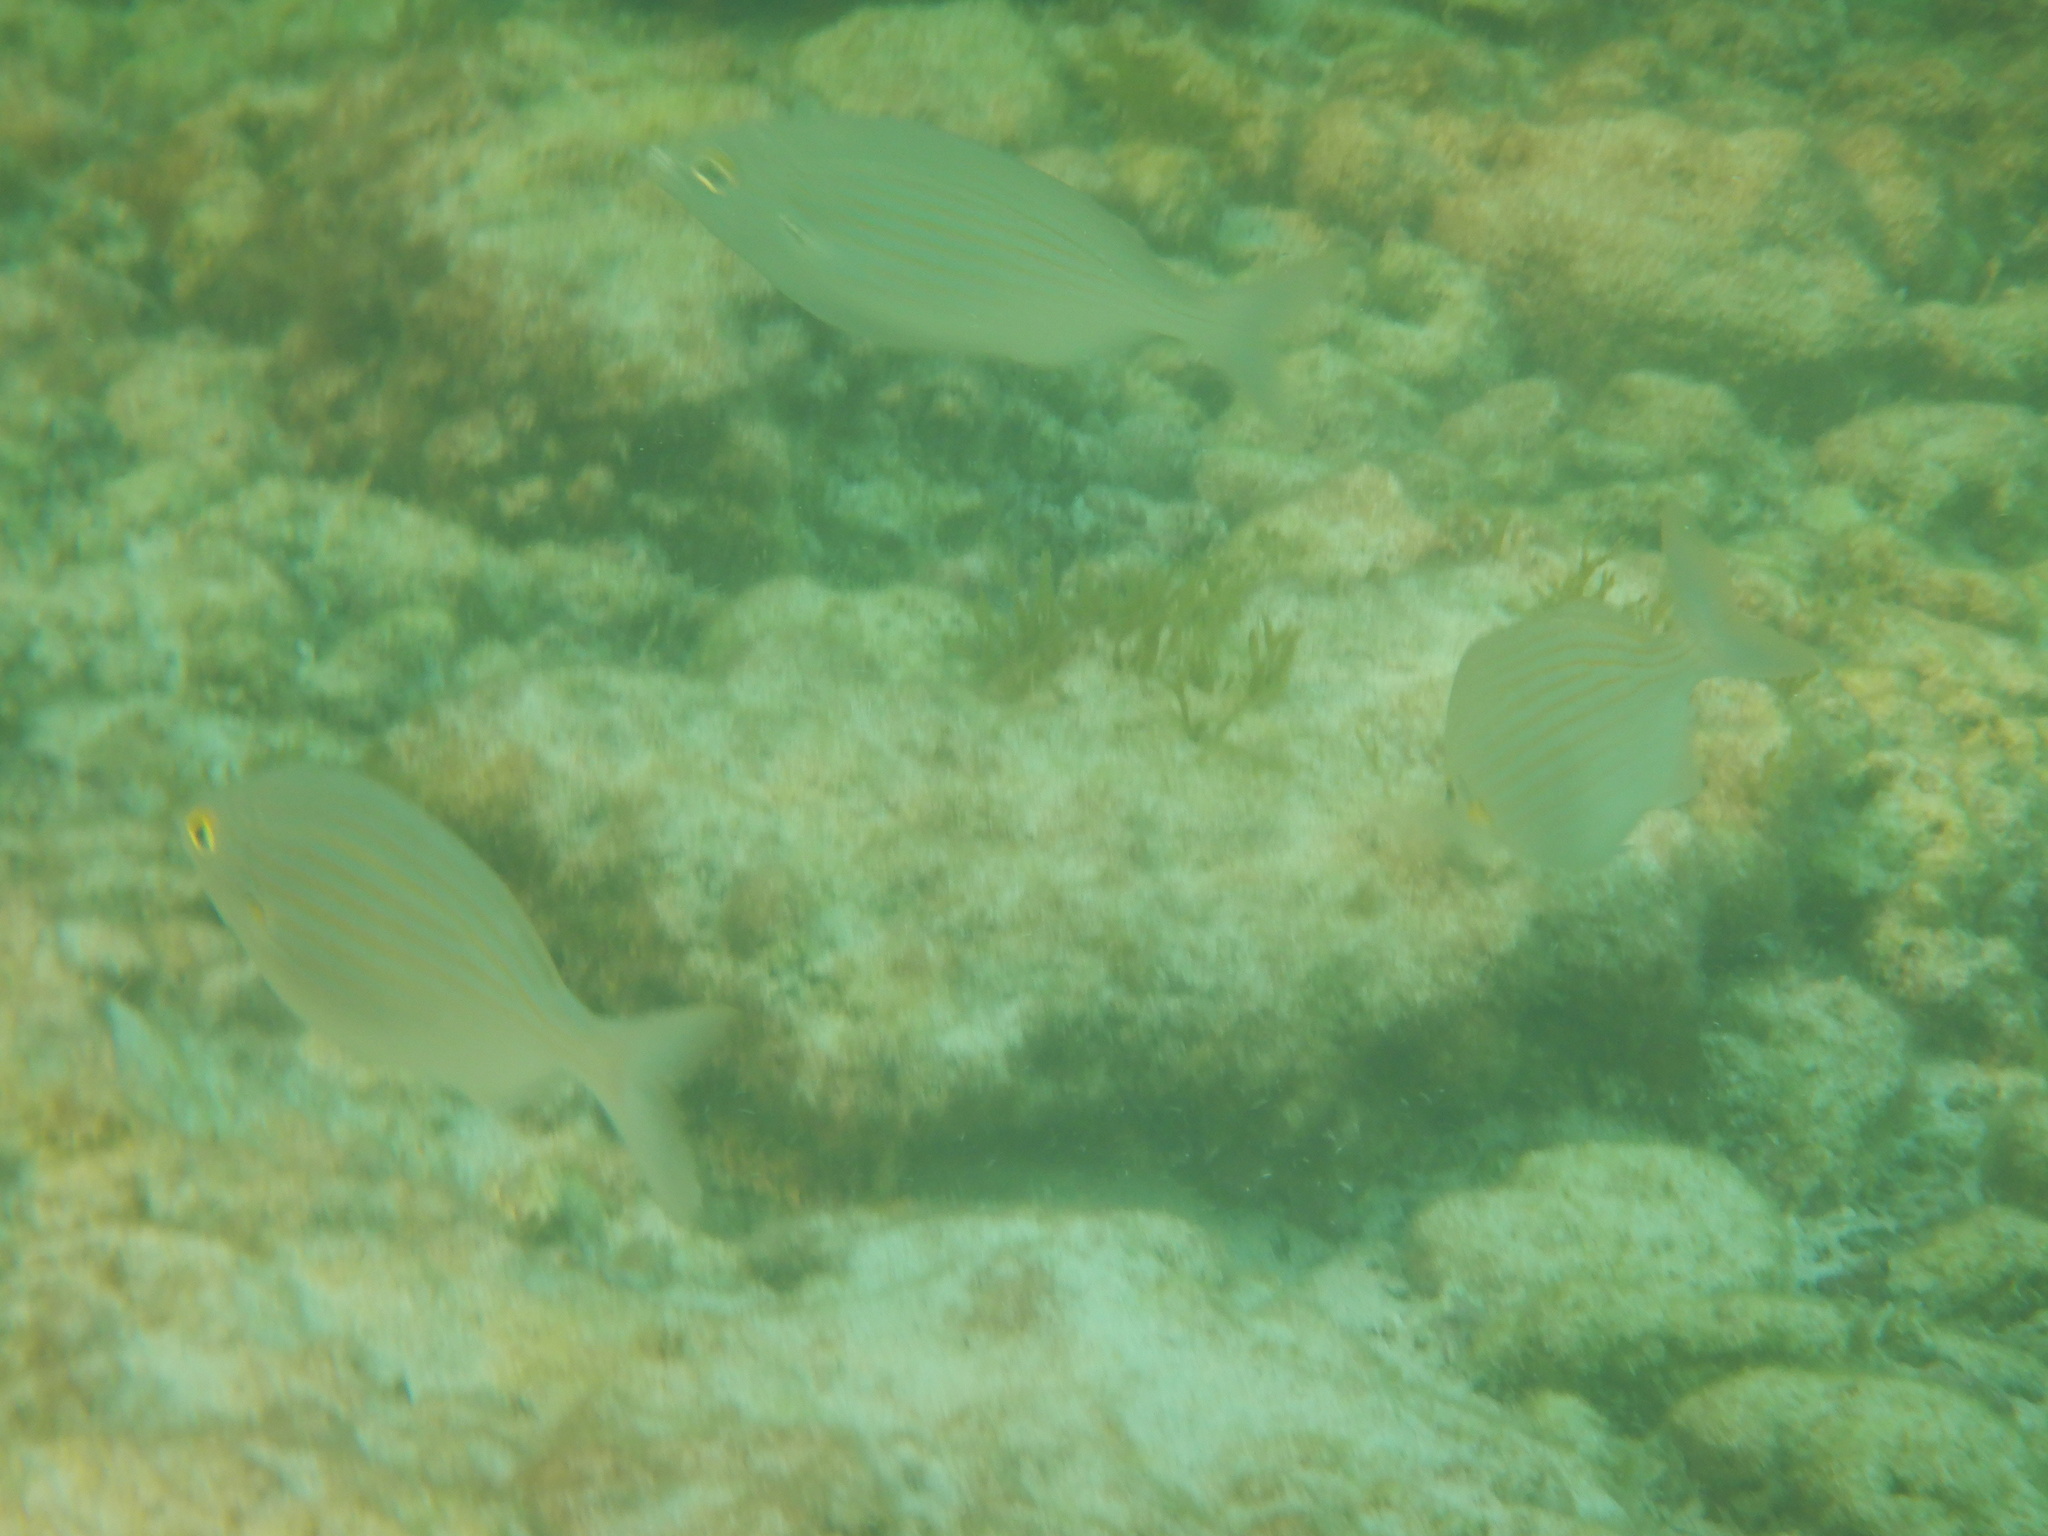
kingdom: Animalia
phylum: Chordata
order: Perciformes
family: Sparidae
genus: Sarpa
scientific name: Sarpa salpa
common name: Salema
